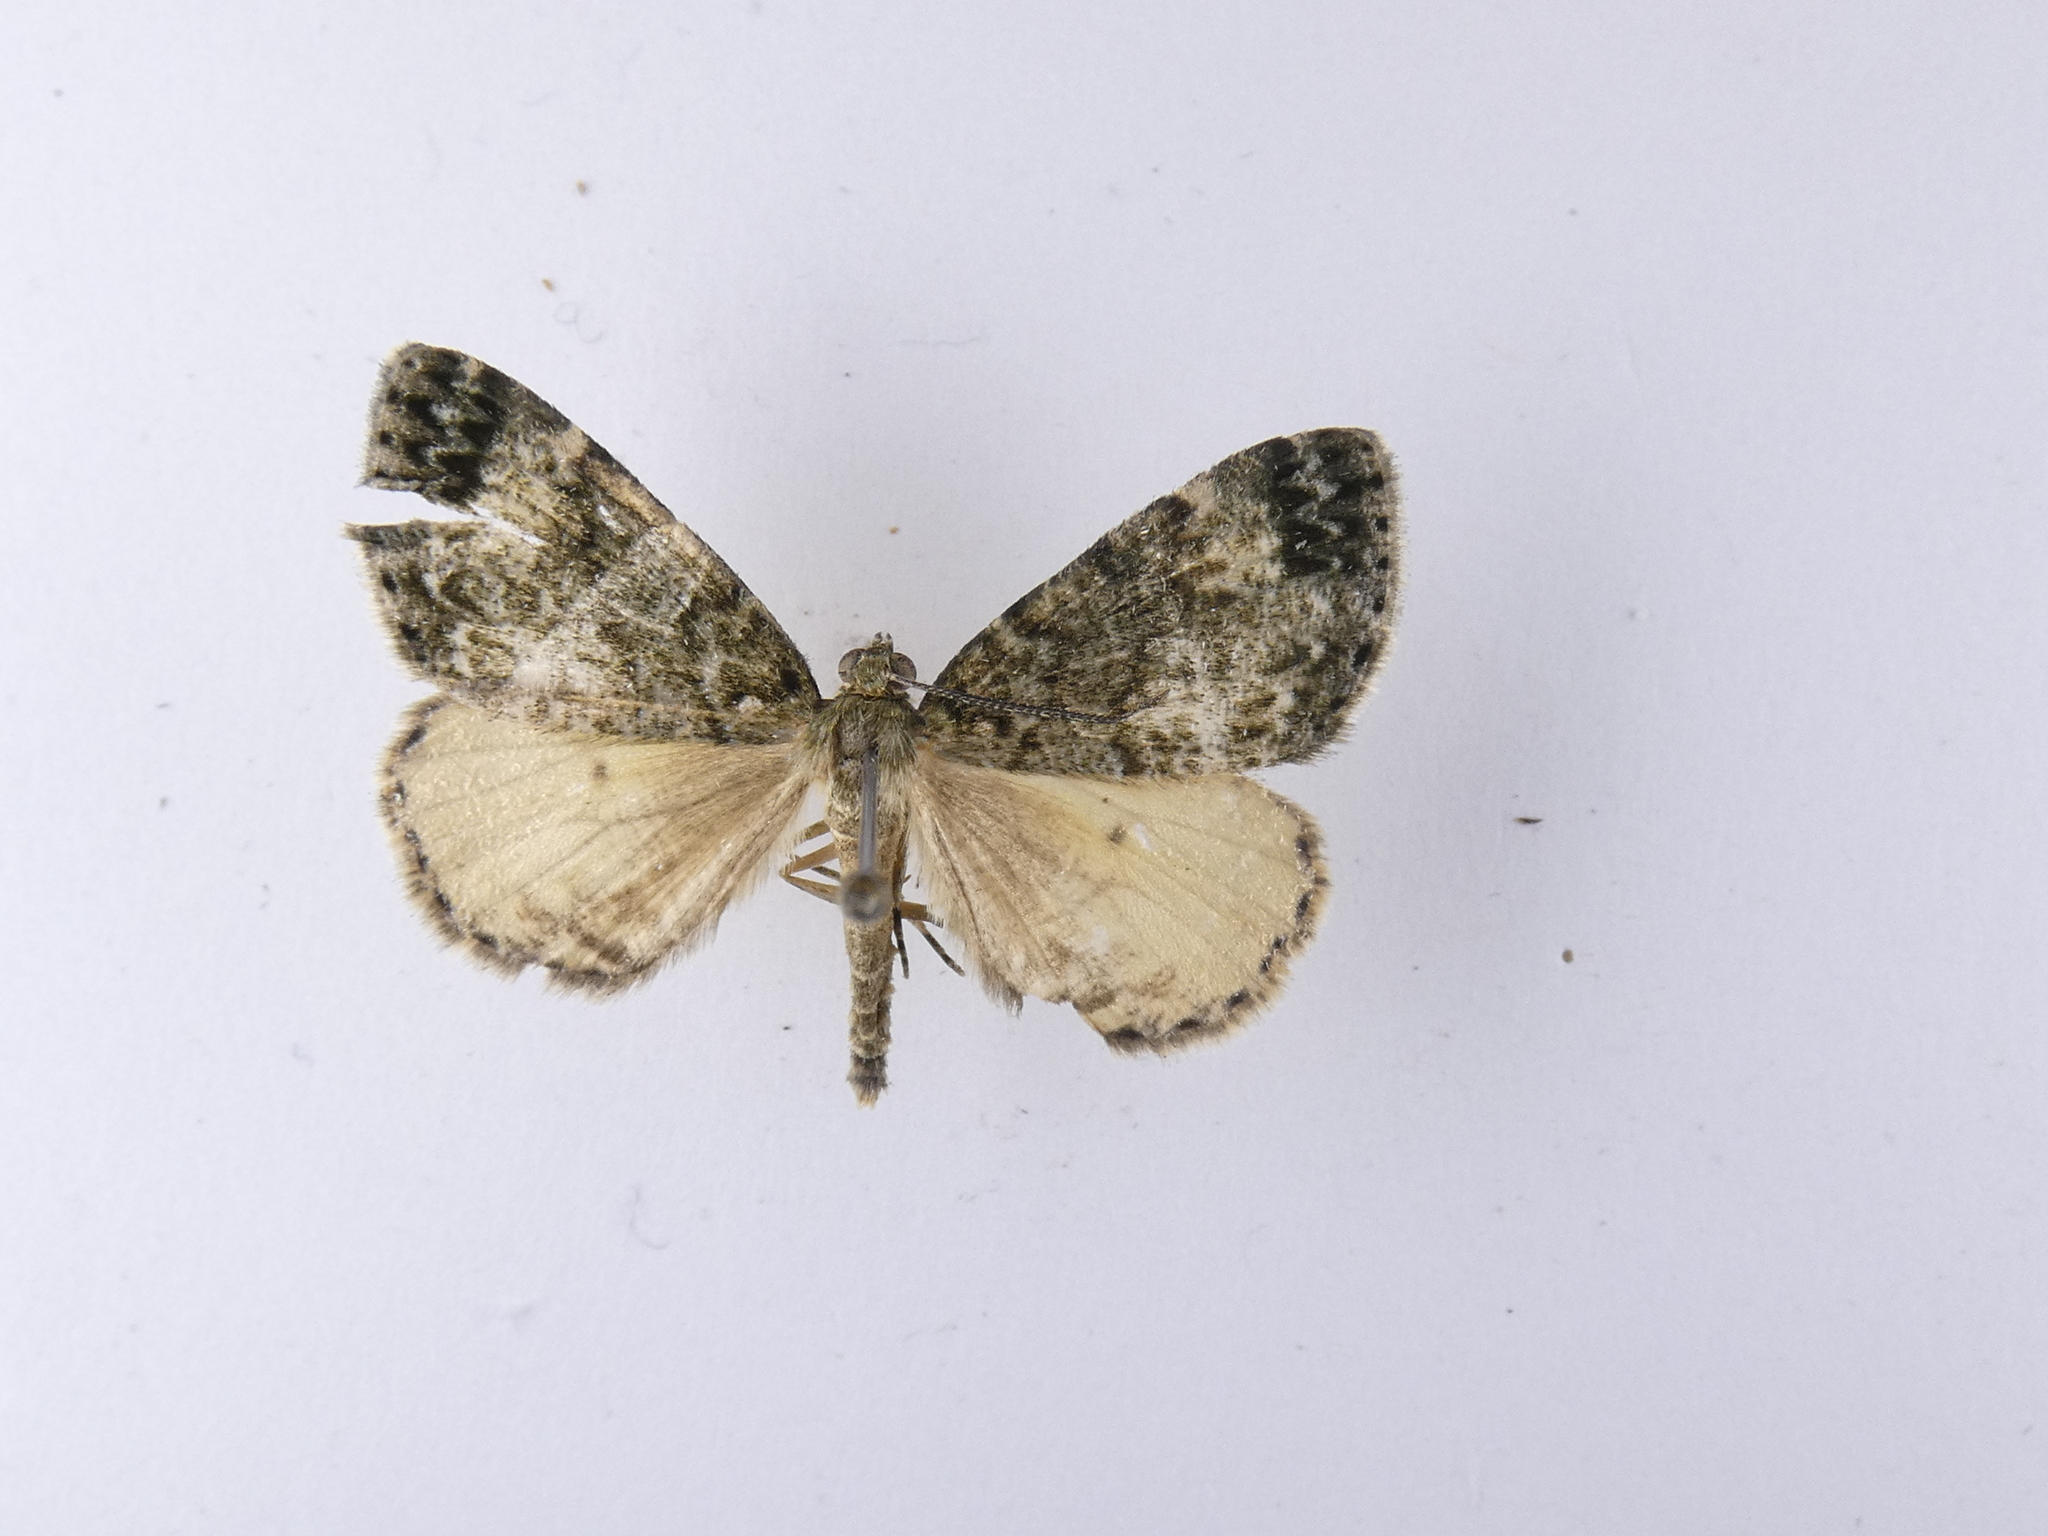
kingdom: Animalia
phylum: Arthropoda
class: Insecta
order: Lepidoptera
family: Geometridae
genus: Pseudocoremia
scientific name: Pseudocoremia indistincta
